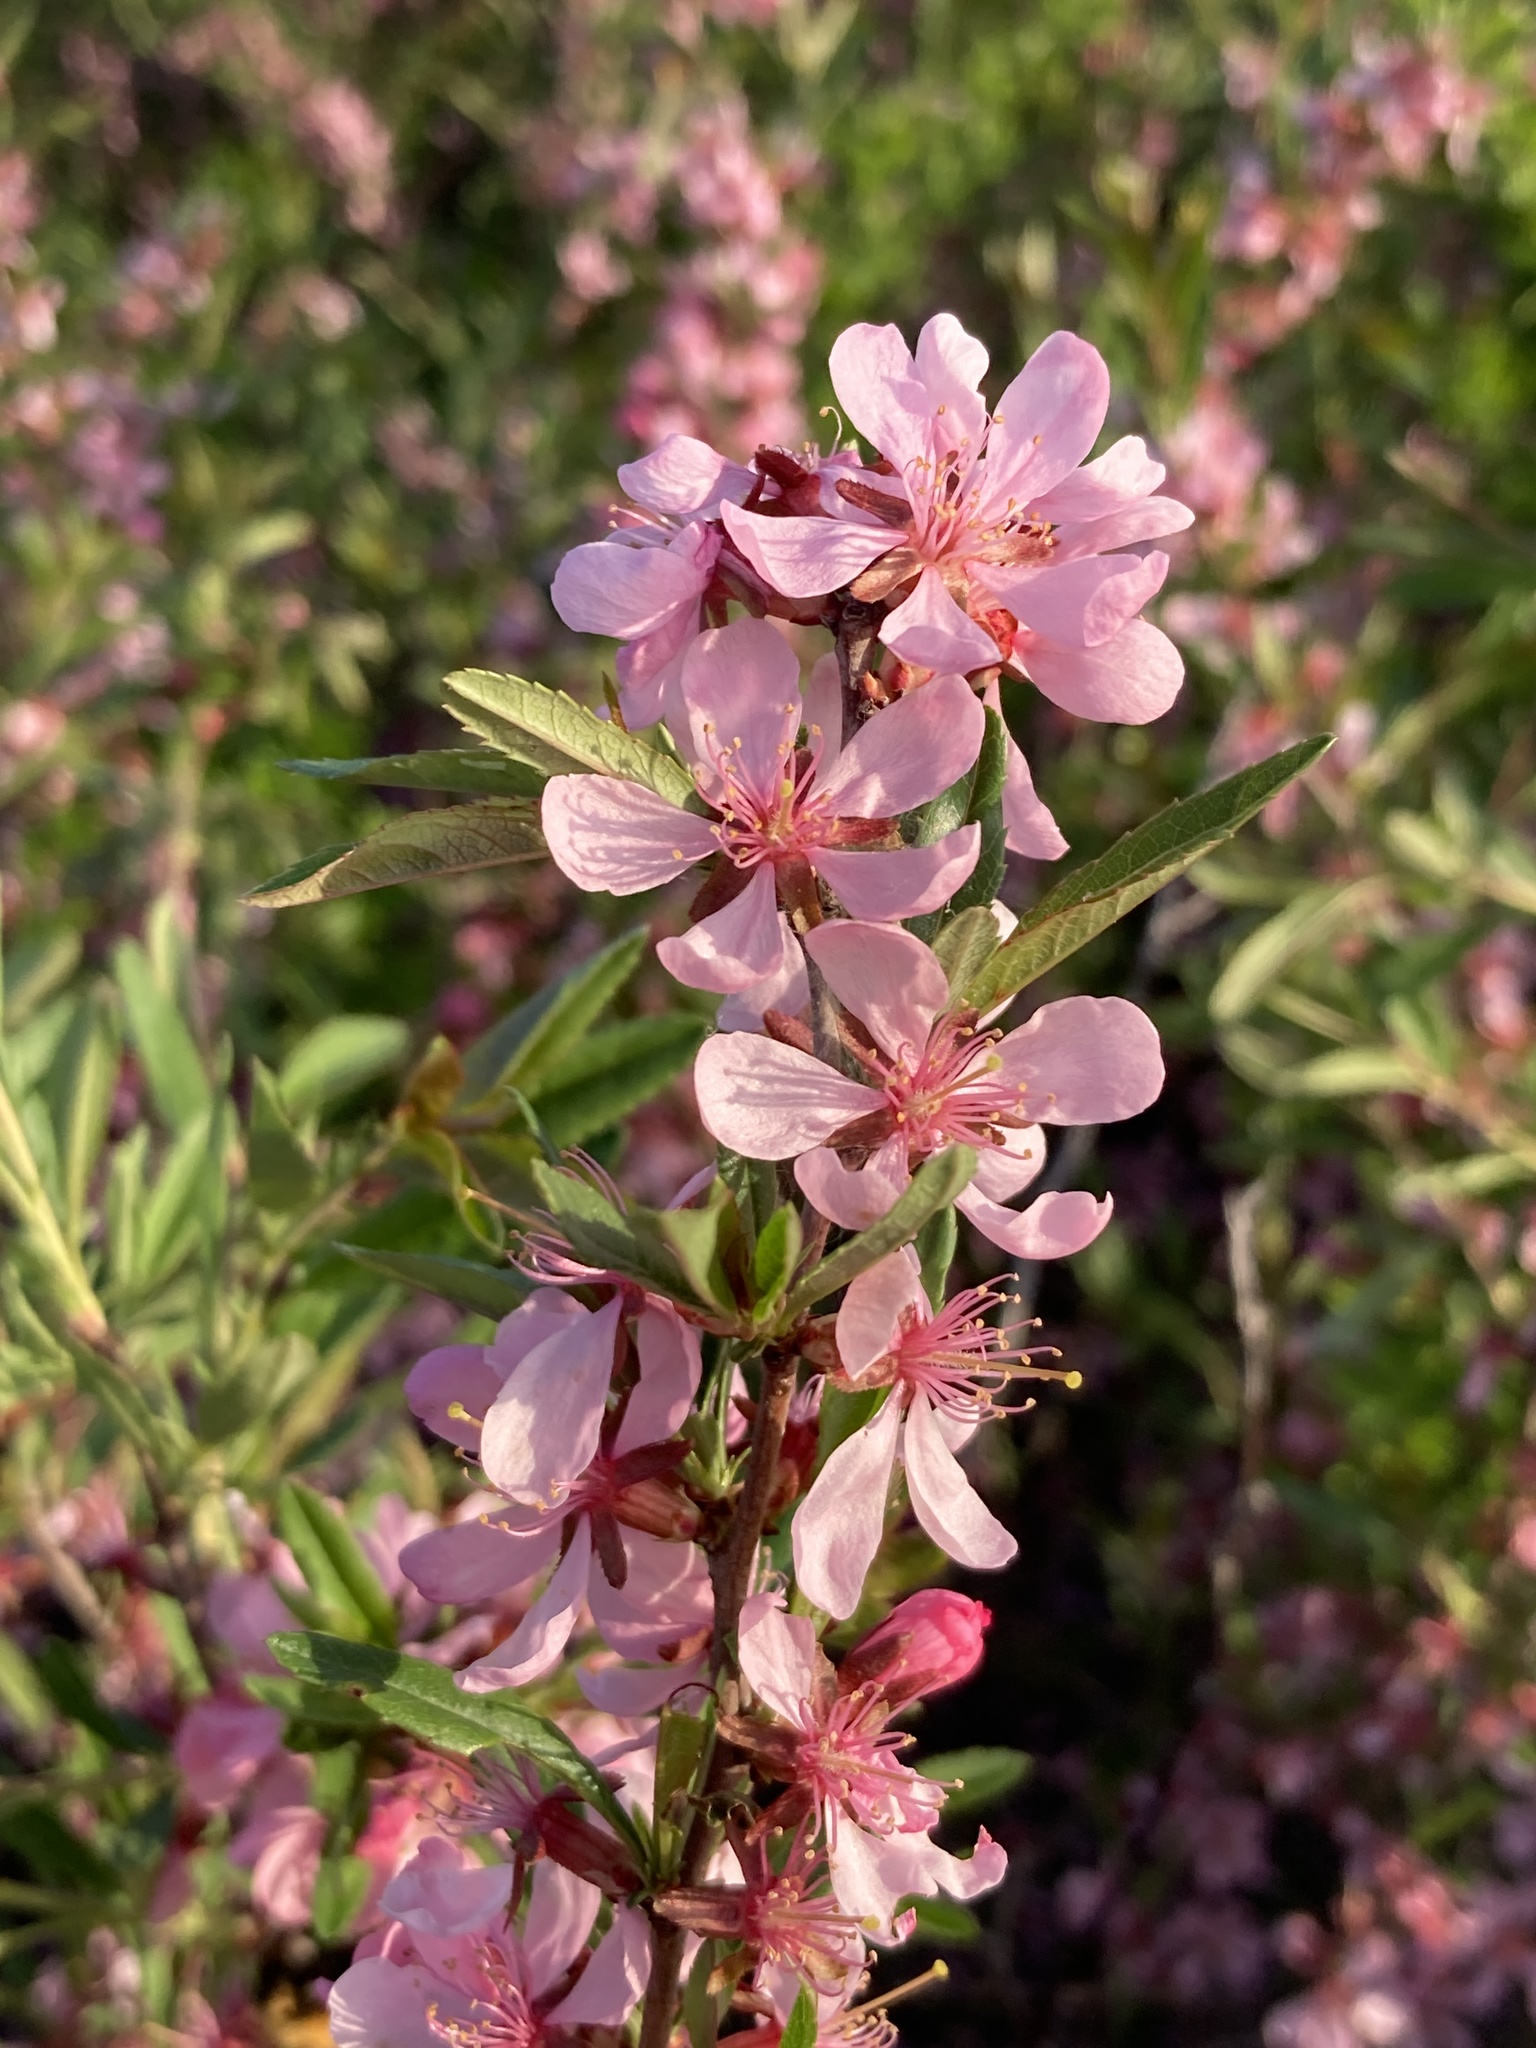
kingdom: Plantae
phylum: Tracheophyta
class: Magnoliopsida
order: Rosales
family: Rosaceae
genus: Prunus
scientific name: Prunus tenella
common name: Dwarf russian almond
